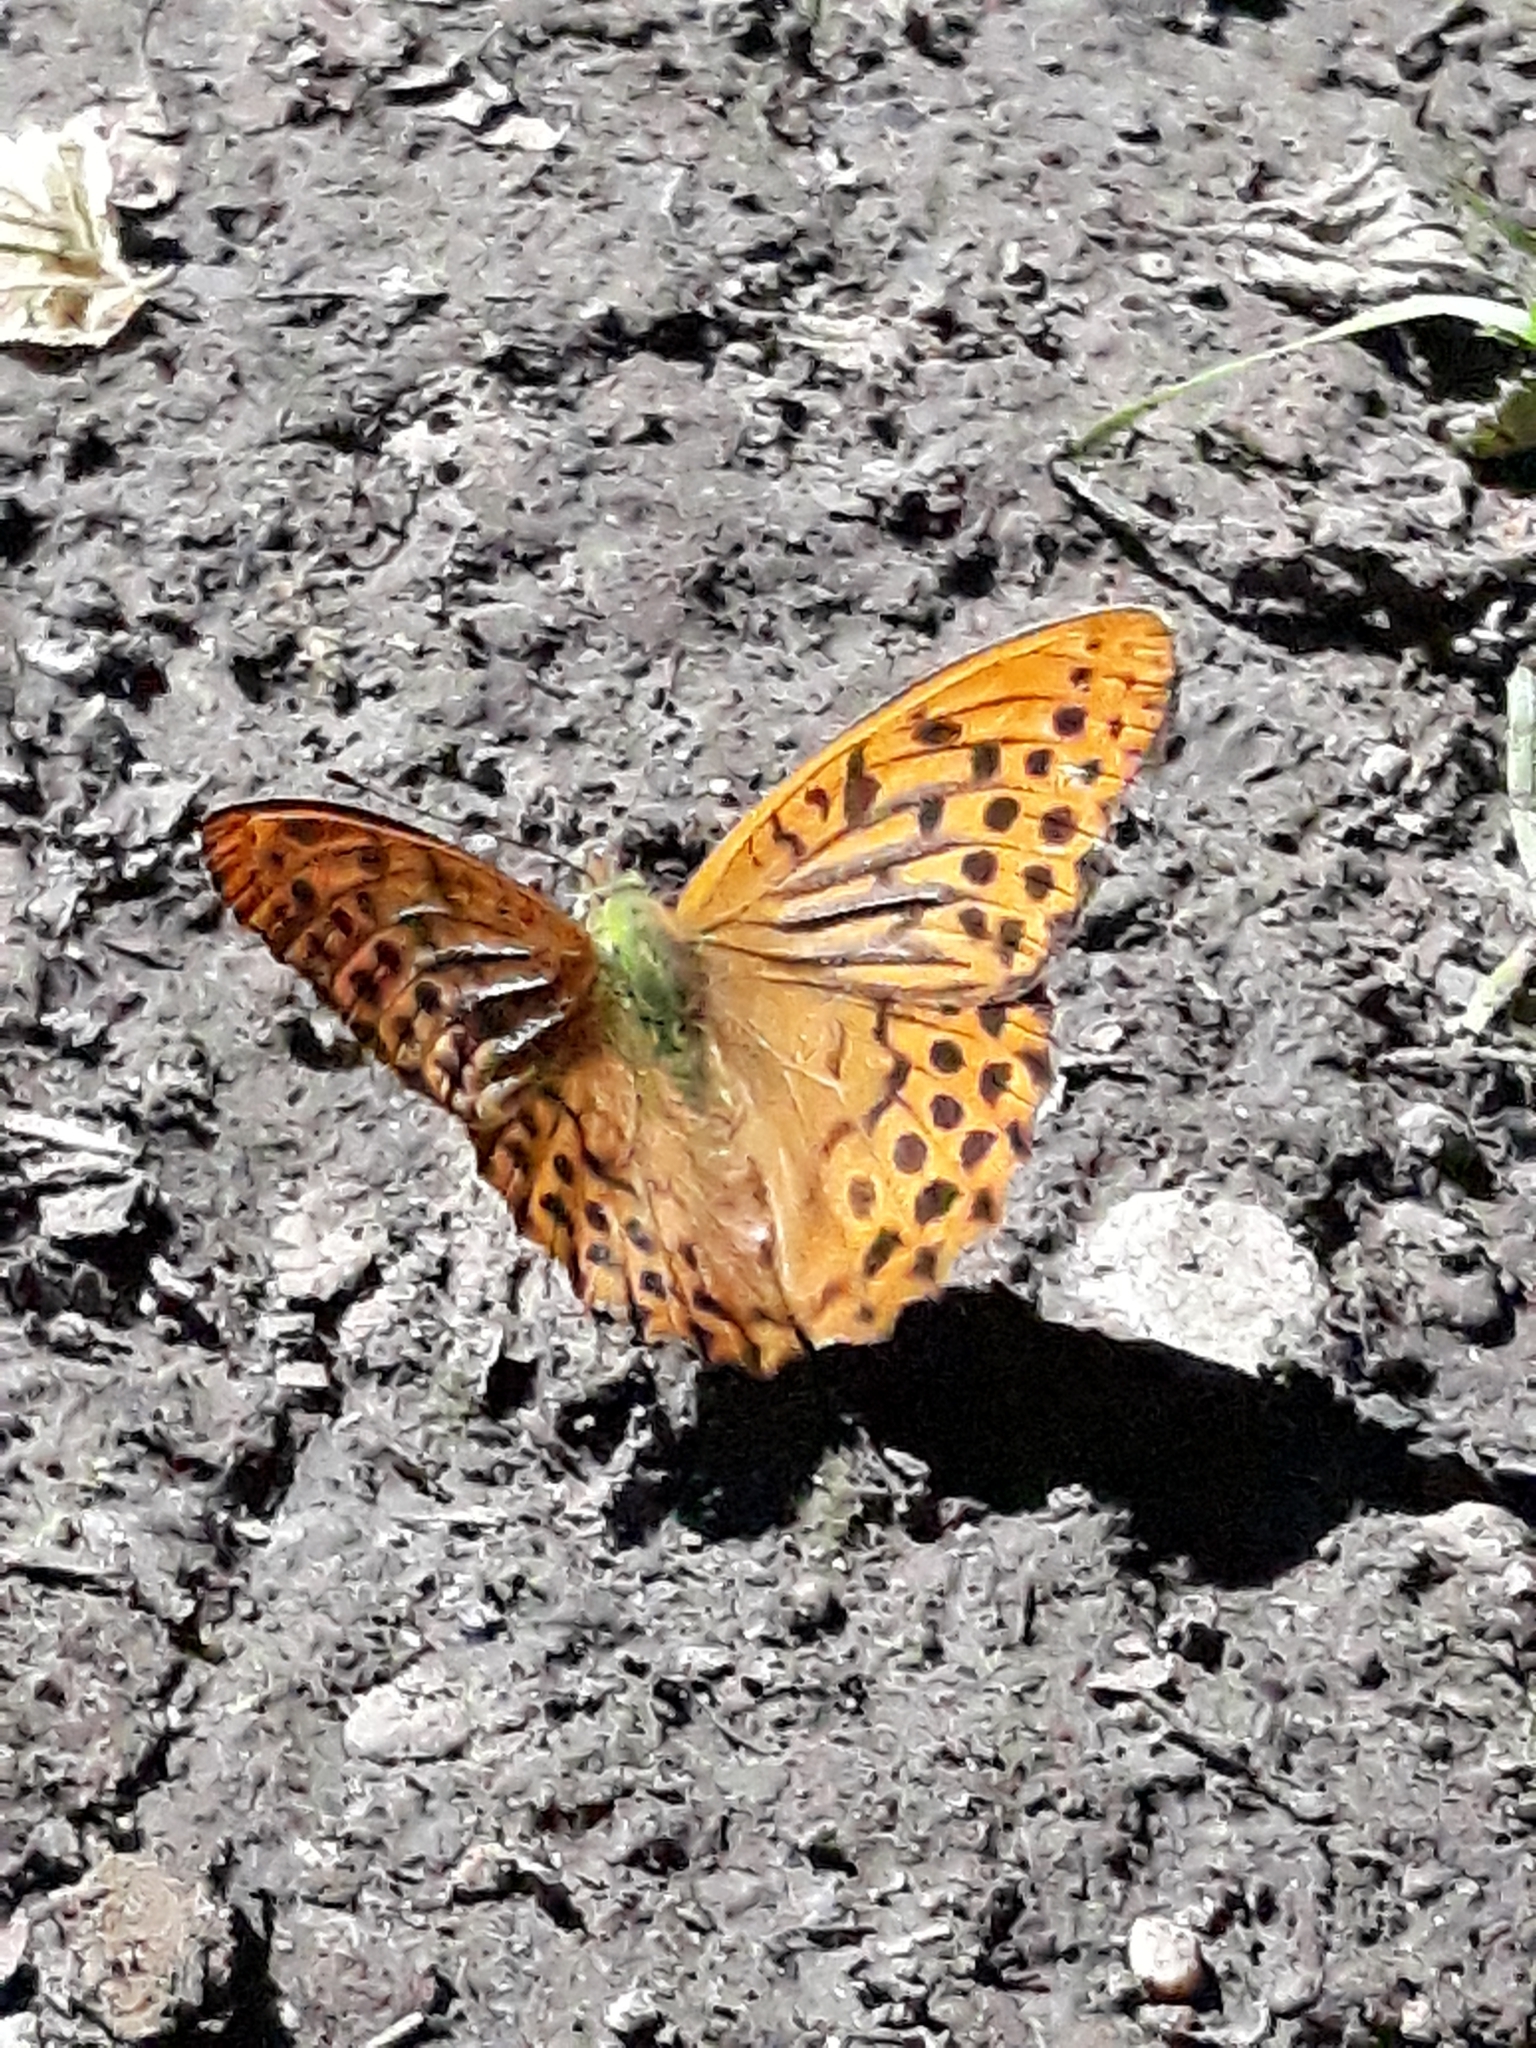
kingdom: Animalia
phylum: Arthropoda
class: Insecta
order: Lepidoptera
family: Nymphalidae
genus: Argynnis
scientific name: Argynnis paphia
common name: Silver-washed fritillary
